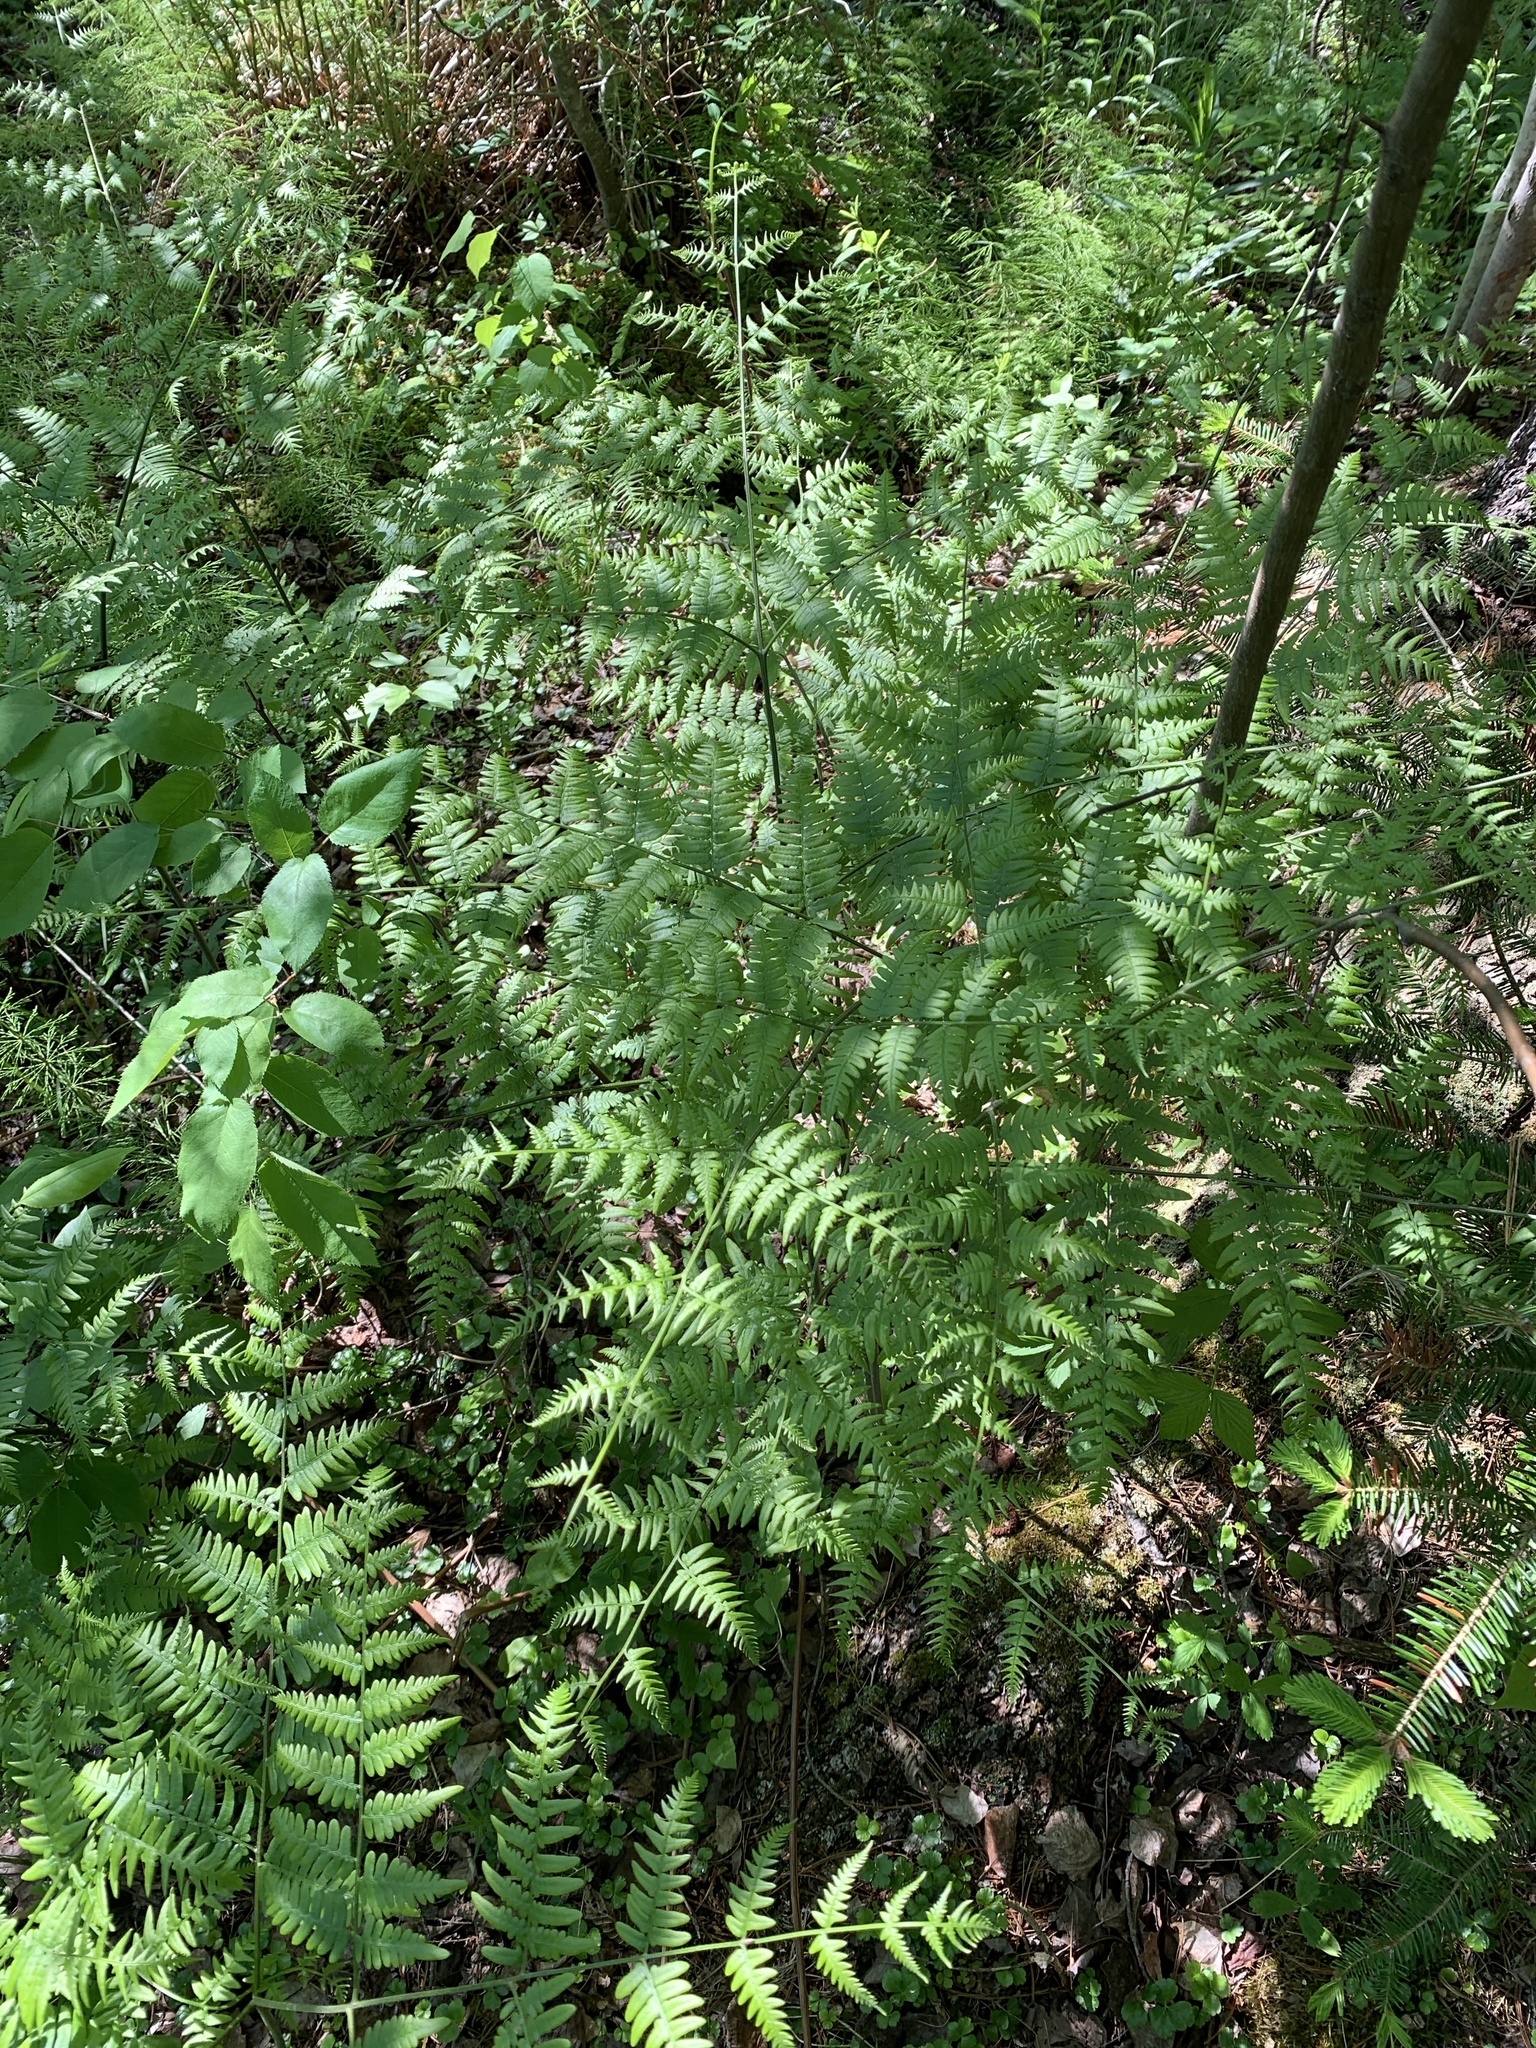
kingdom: Plantae
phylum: Tracheophyta
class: Polypodiopsida
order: Polypodiales
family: Dennstaedtiaceae
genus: Pteridium
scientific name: Pteridium aquilinum
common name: Bracken
